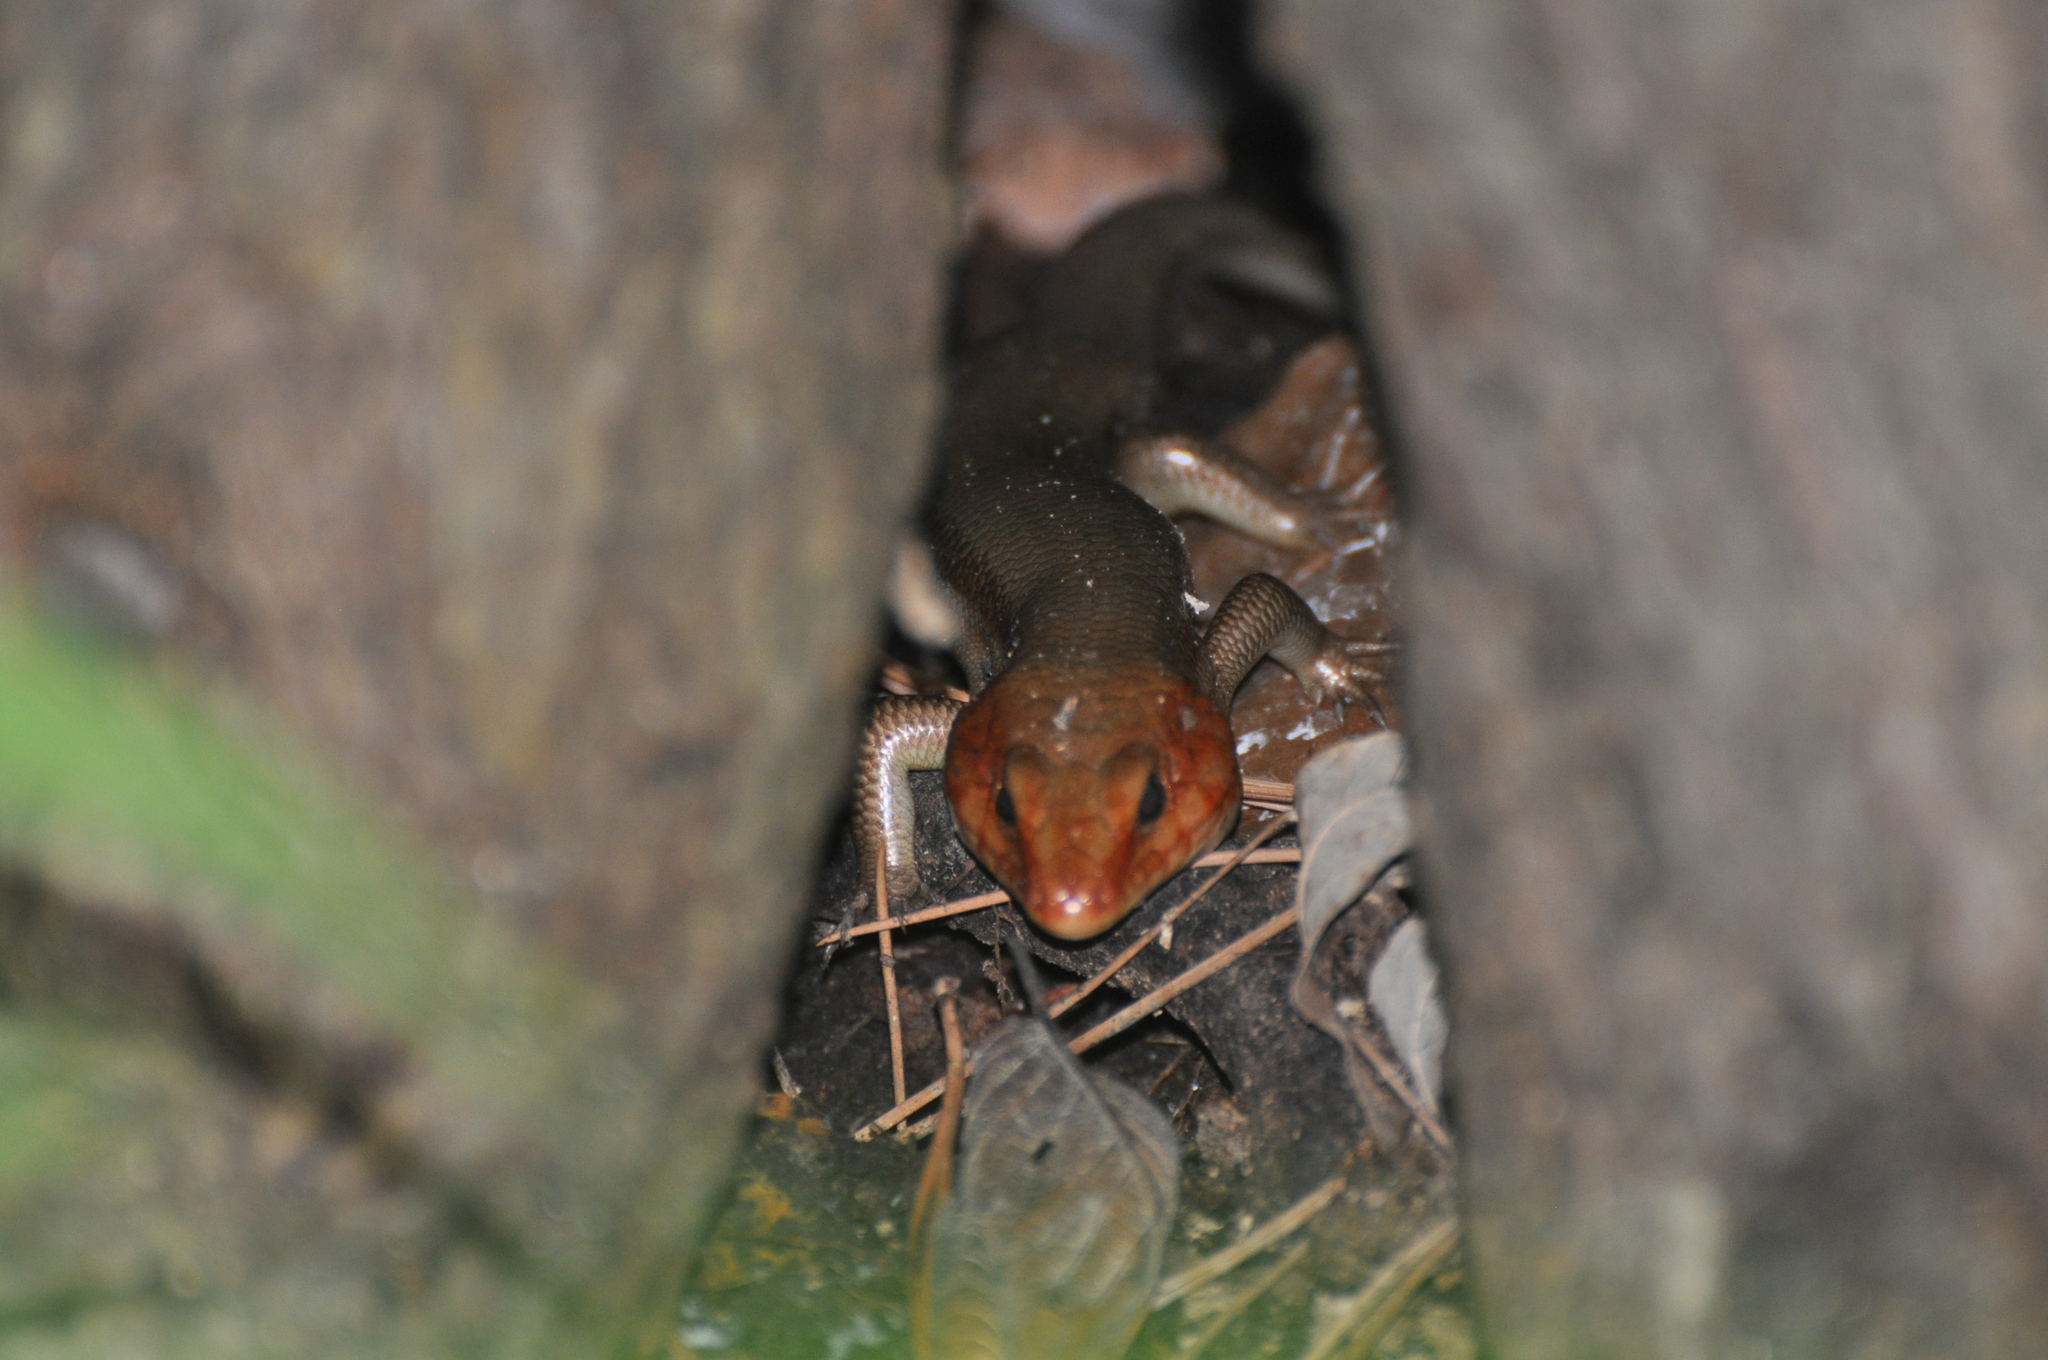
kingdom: Animalia
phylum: Chordata
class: Squamata
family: Scincidae
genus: Plestiodon
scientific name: Plestiodon laticeps
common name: Broadhead skink
